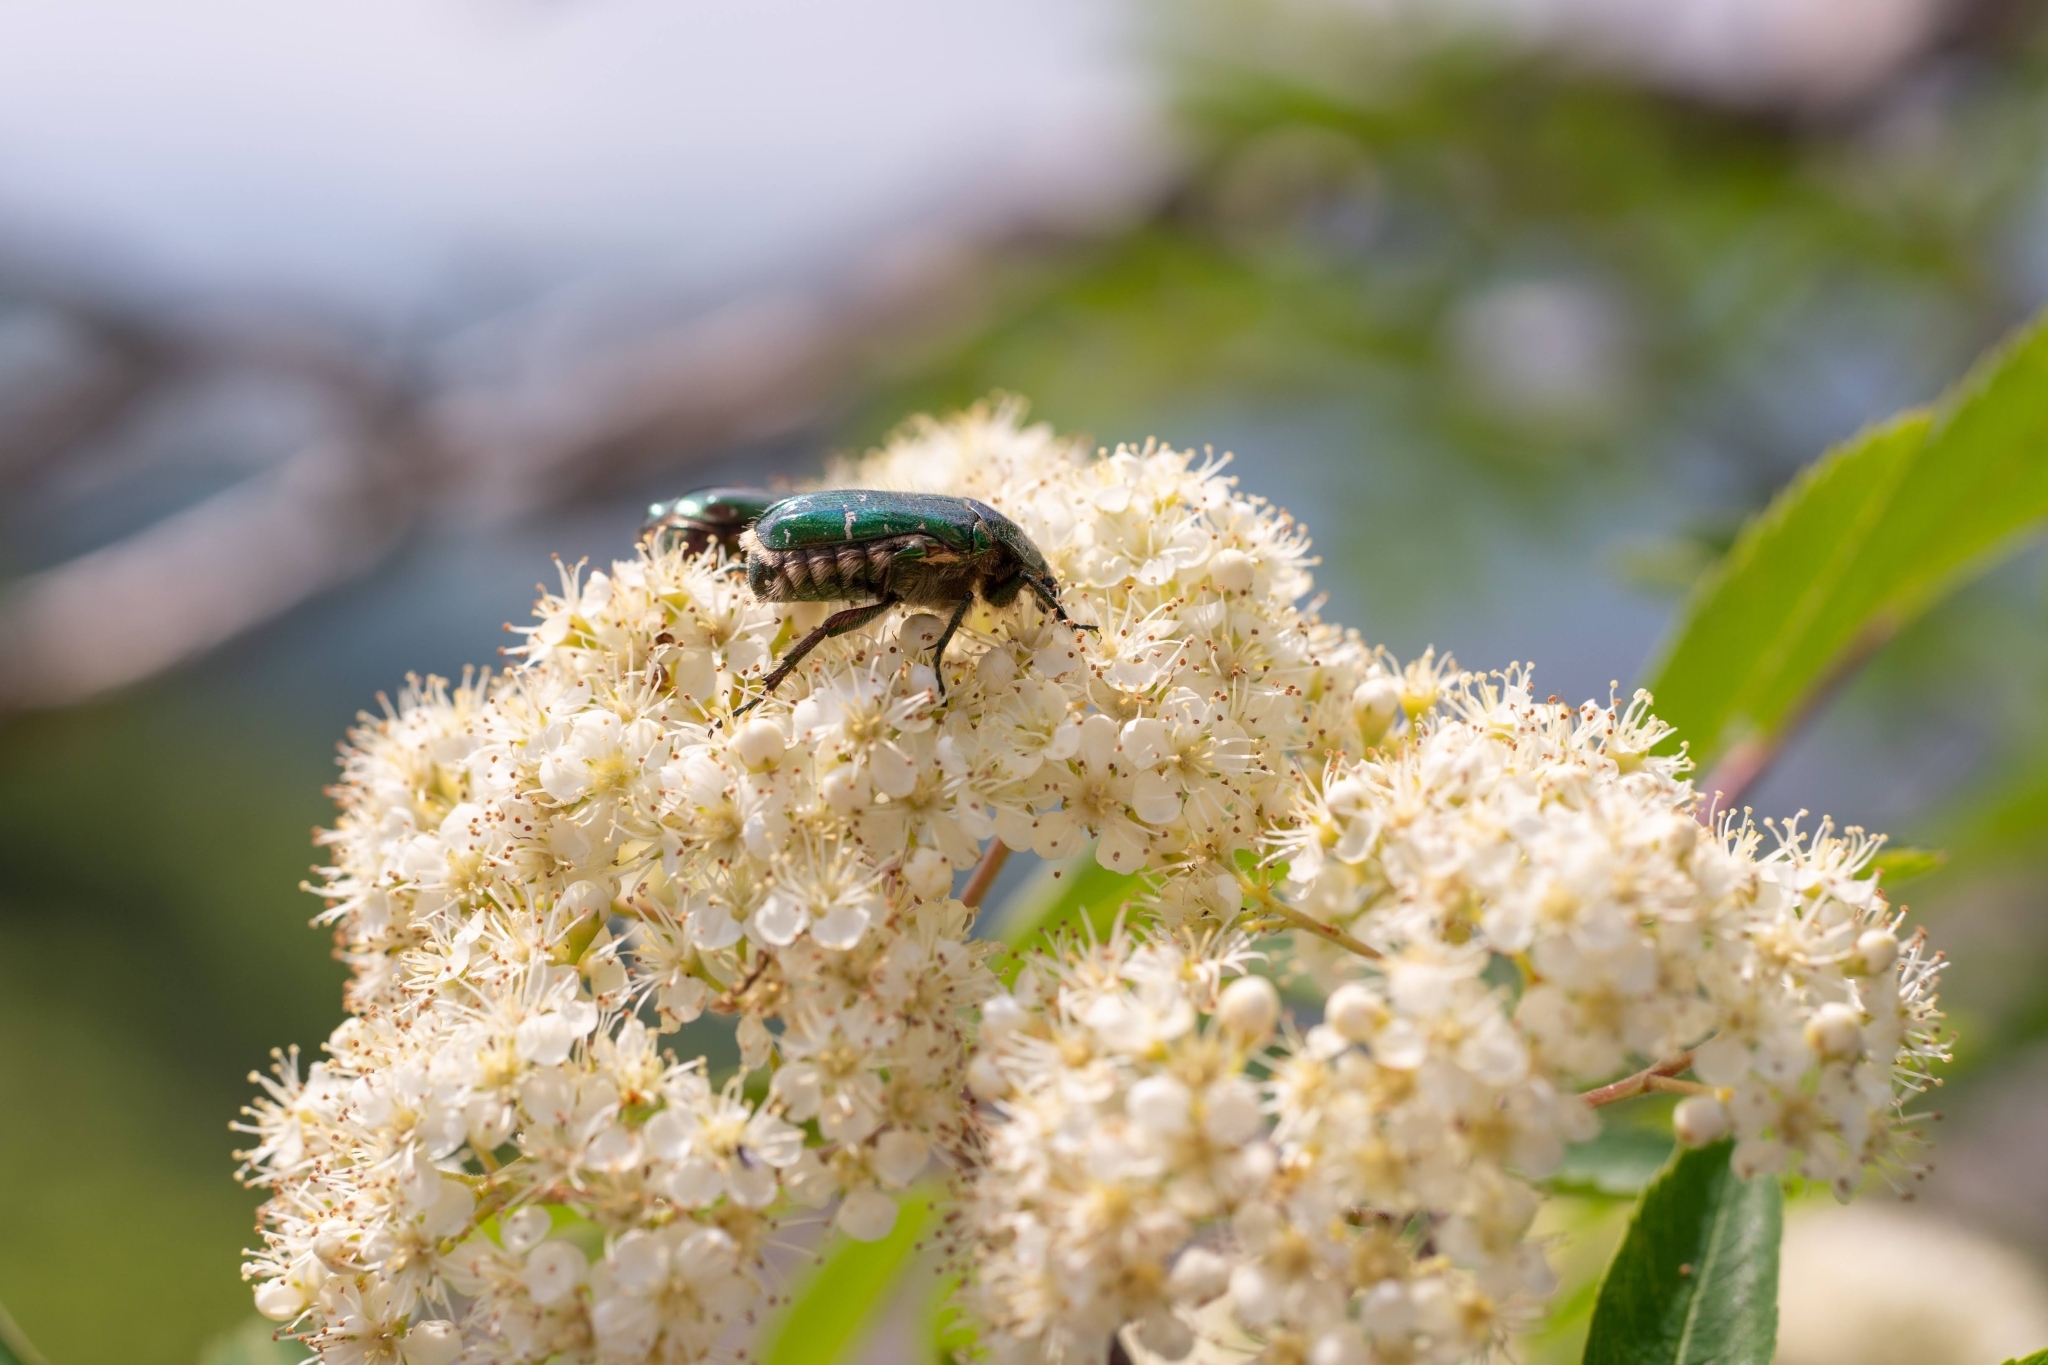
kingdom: Animalia
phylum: Arthropoda
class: Insecta
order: Coleoptera
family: Scarabaeidae
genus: Cetonia
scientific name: Cetonia aurata
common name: Rose chafer
